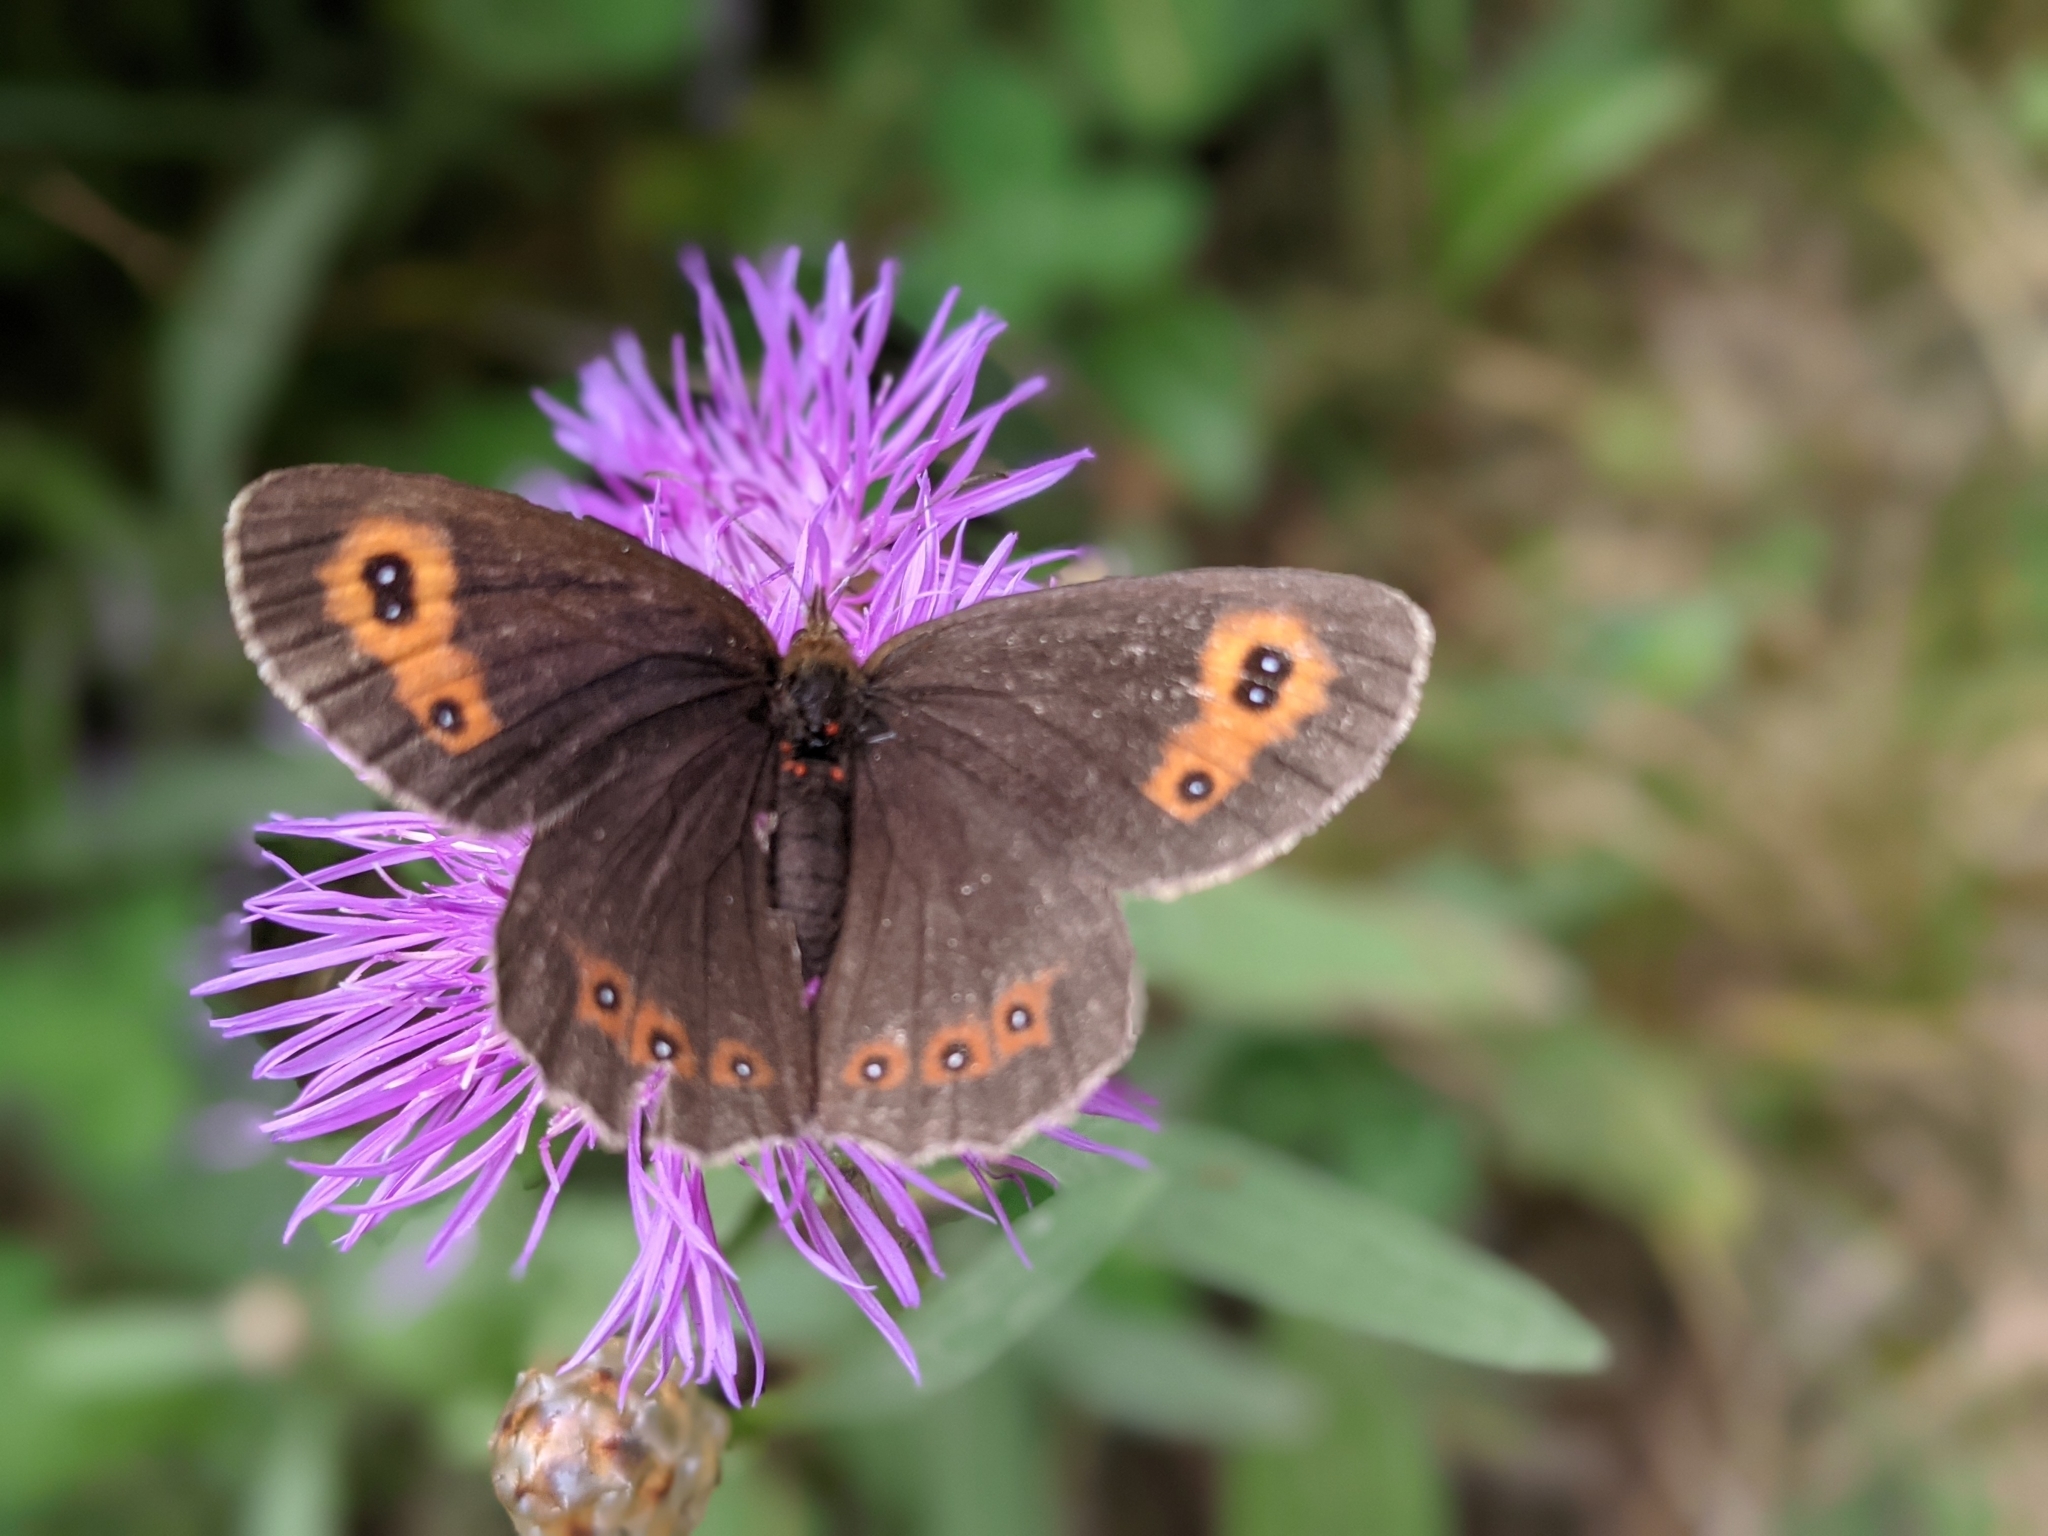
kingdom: Animalia
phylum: Arthropoda
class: Insecta
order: Lepidoptera
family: Nymphalidae
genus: Erebia
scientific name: Erebia aethiops
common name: Scotch argus
